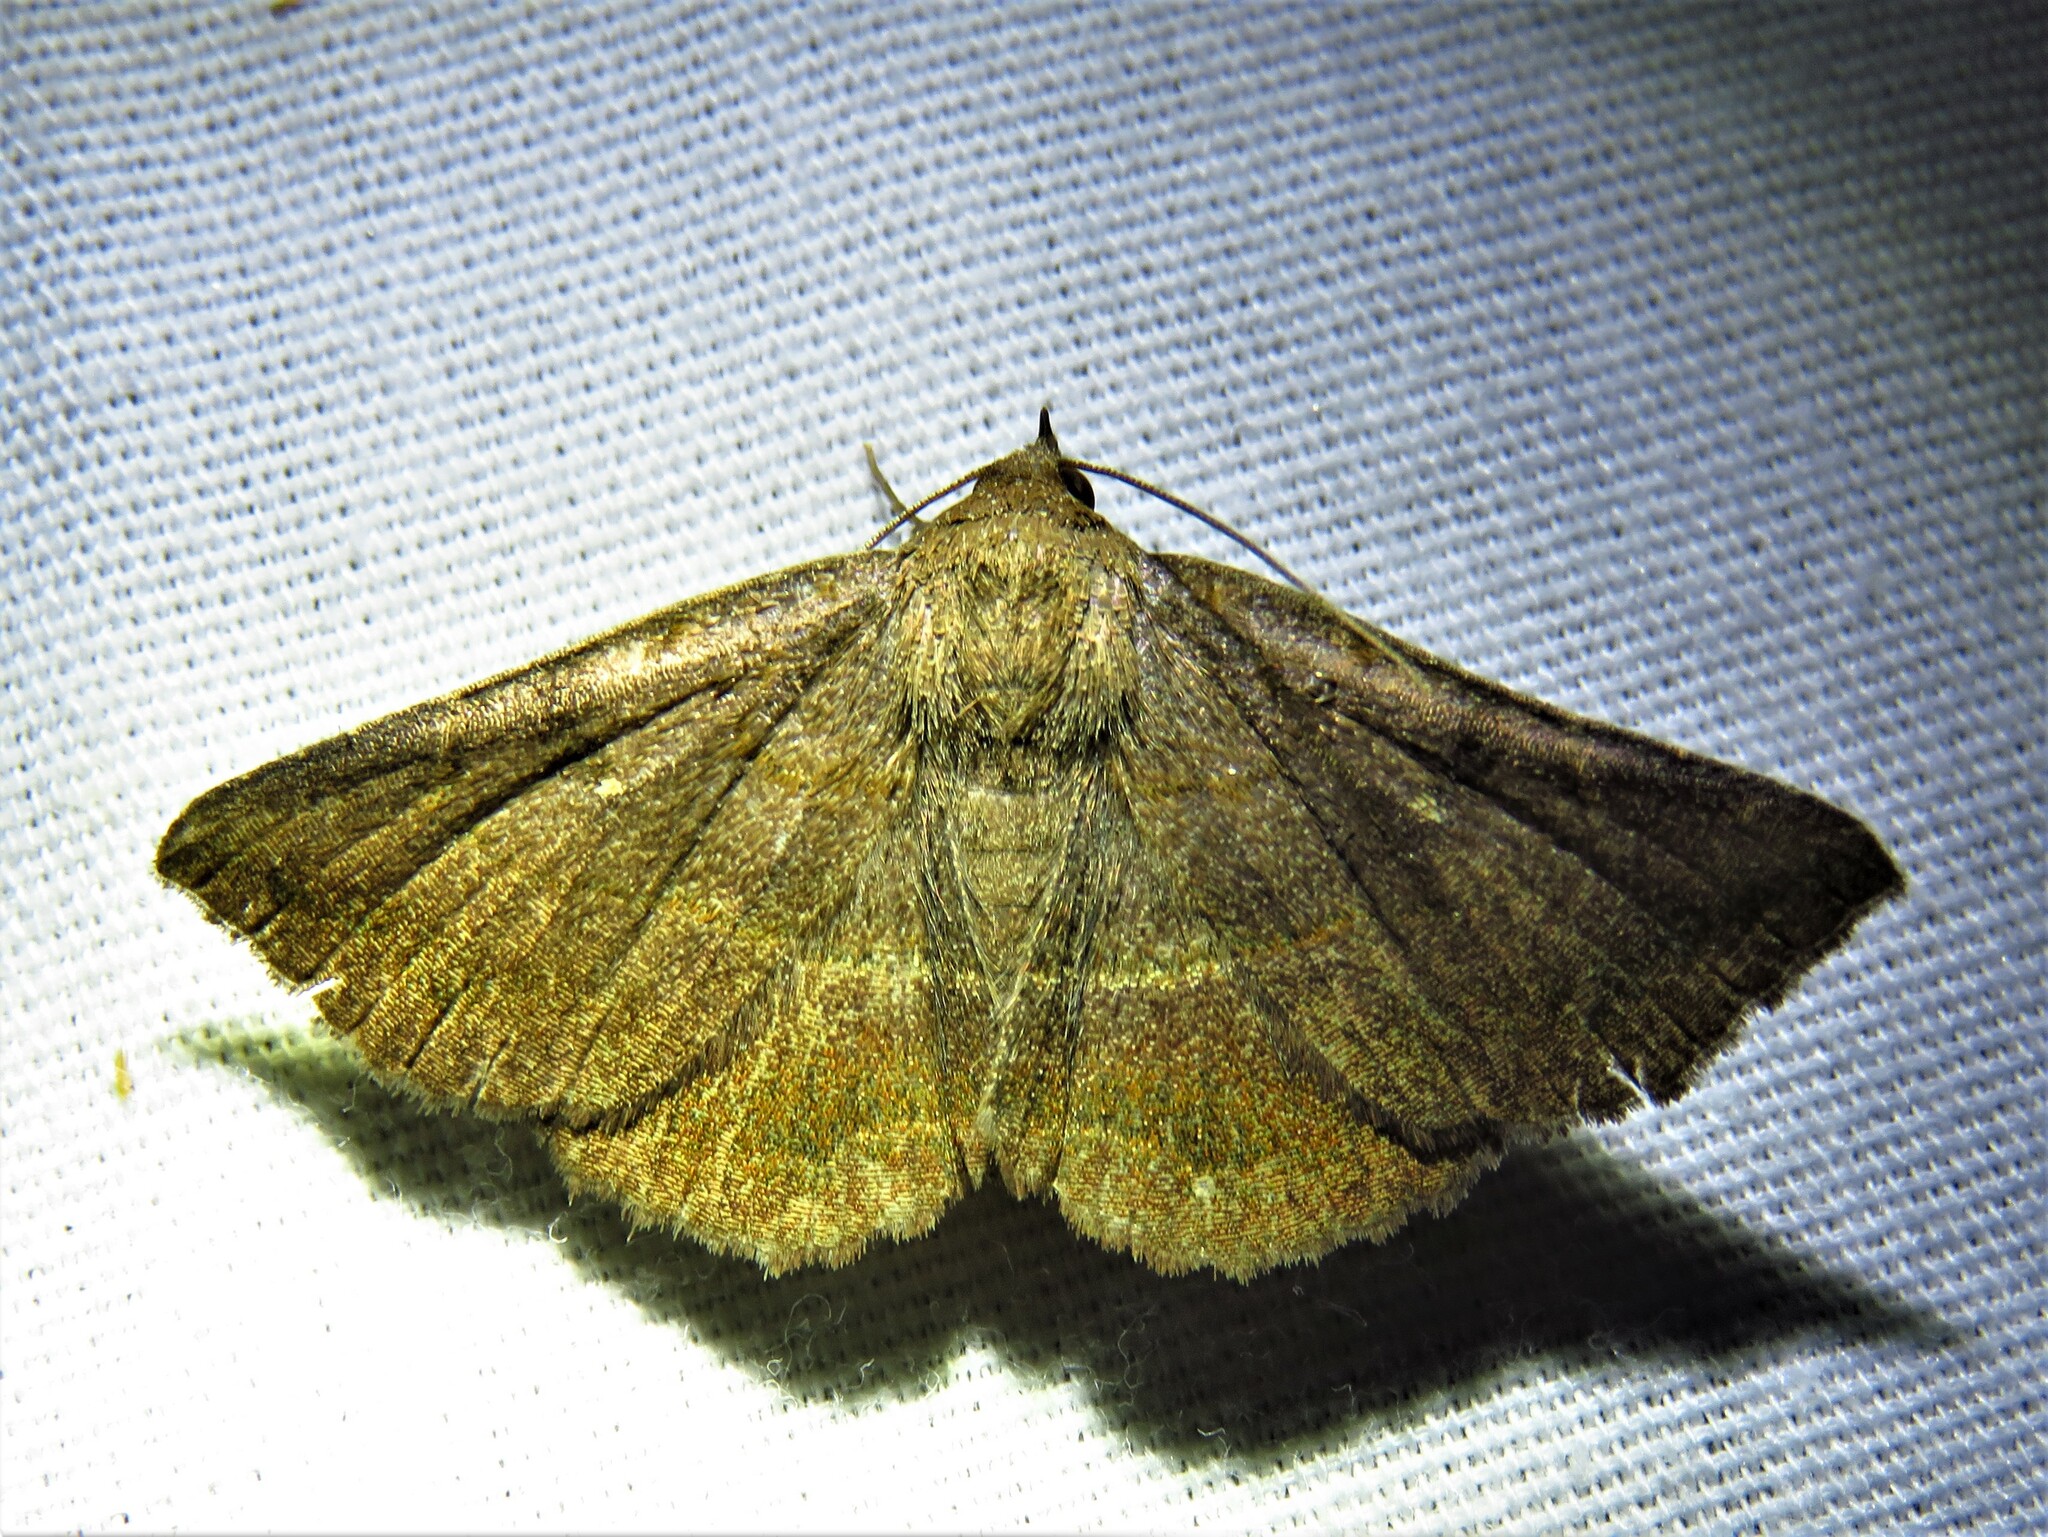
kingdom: Animalia
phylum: Arthropoda
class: Insecta
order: Lepidoptera
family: Erebidae
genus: Lesmone
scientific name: Lesmone detrahens
